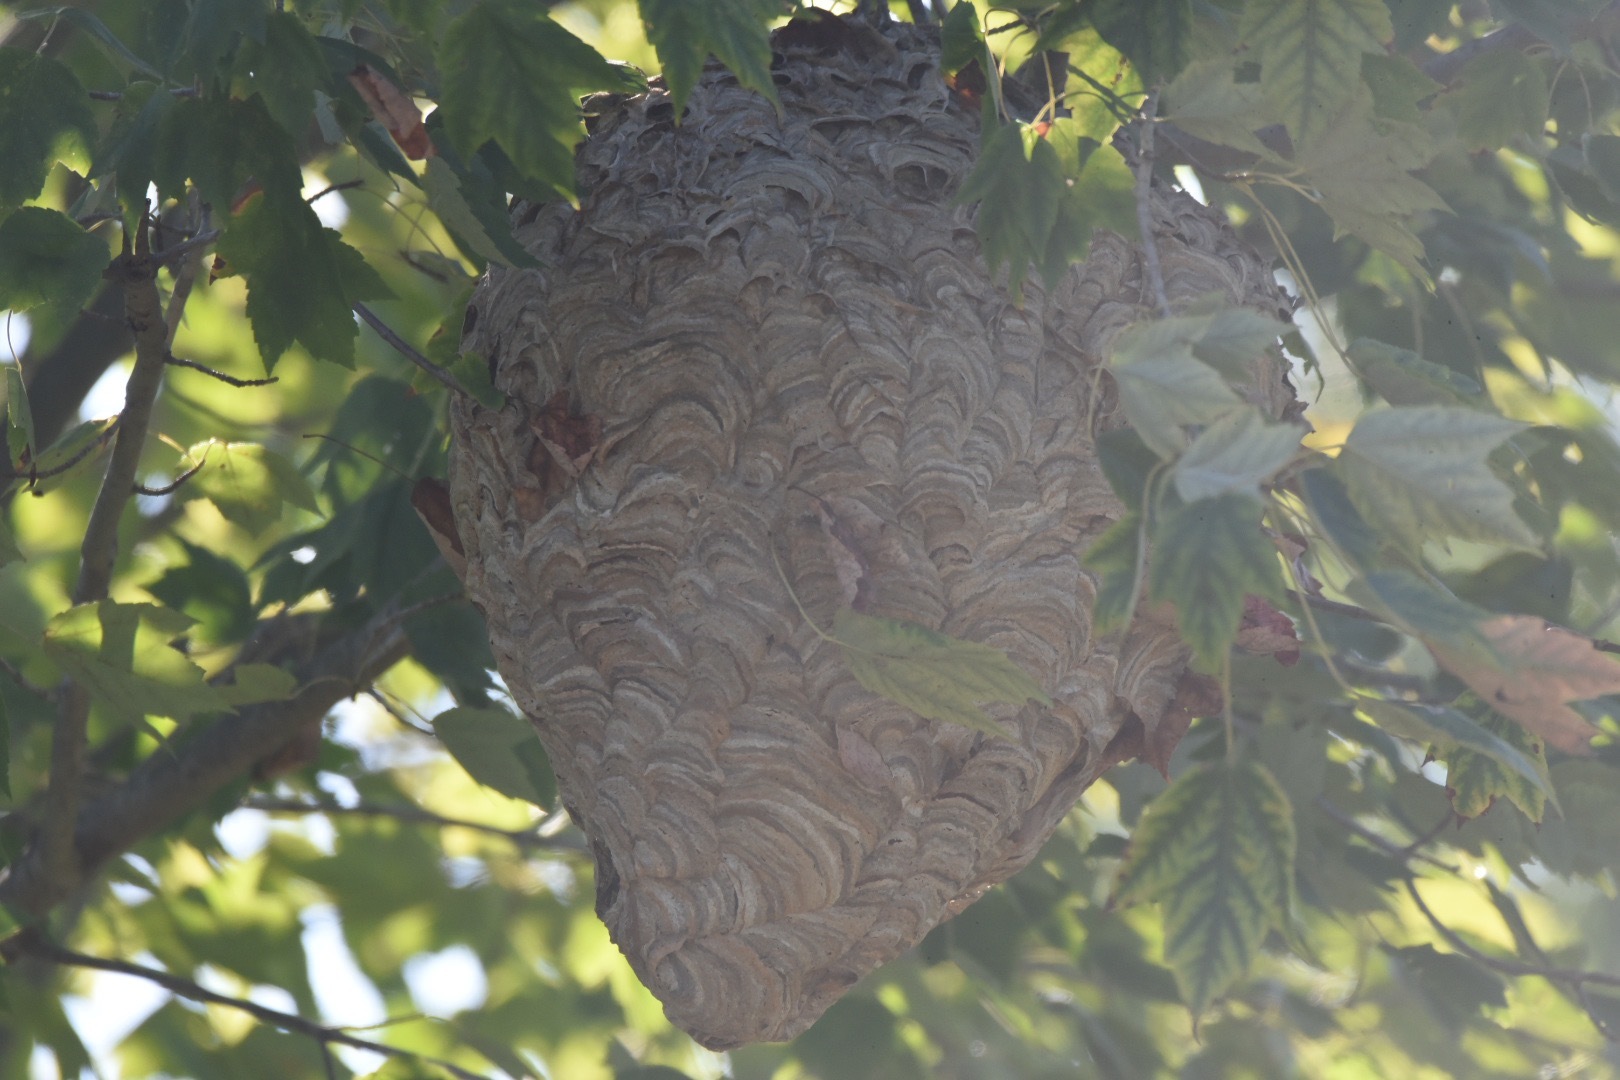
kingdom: Animalia
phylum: Arthropoda
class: Insecta
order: Hymenoptera
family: Vespidae
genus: Dolichovespula
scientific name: Dolichovespula maculata
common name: Bald-faced hornet
